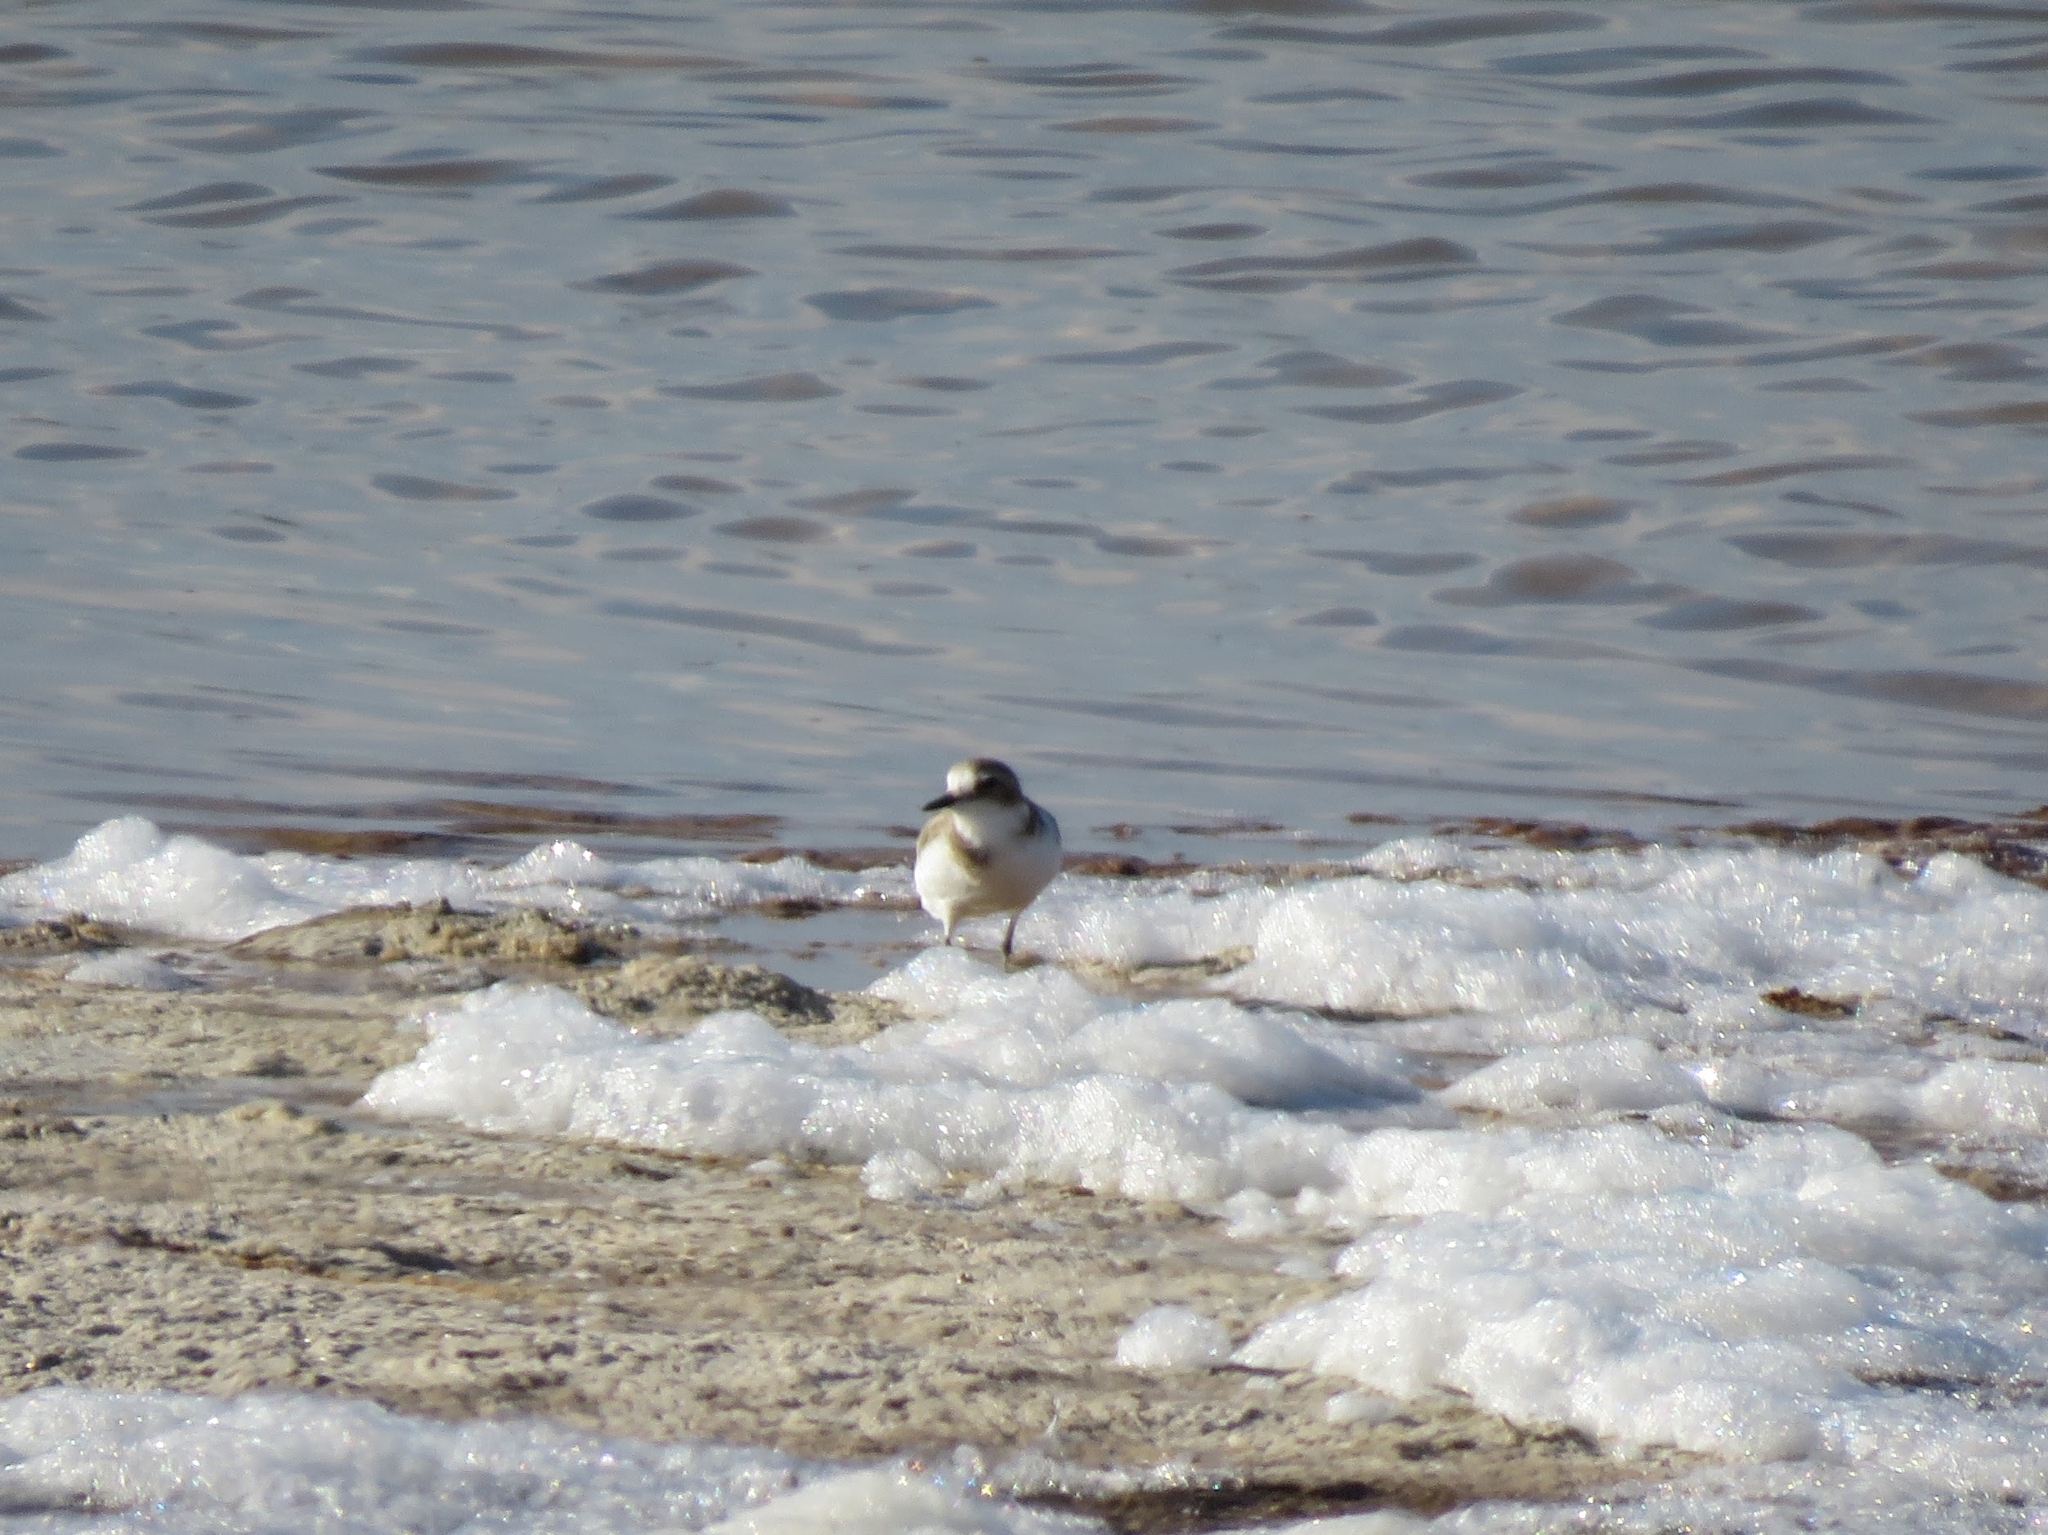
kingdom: Animalia
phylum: Chordata
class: Aves
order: Charadriiformes
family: Charadriidae
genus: Charadrius
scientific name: Charadrius alexandrinus
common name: Kentish plover
